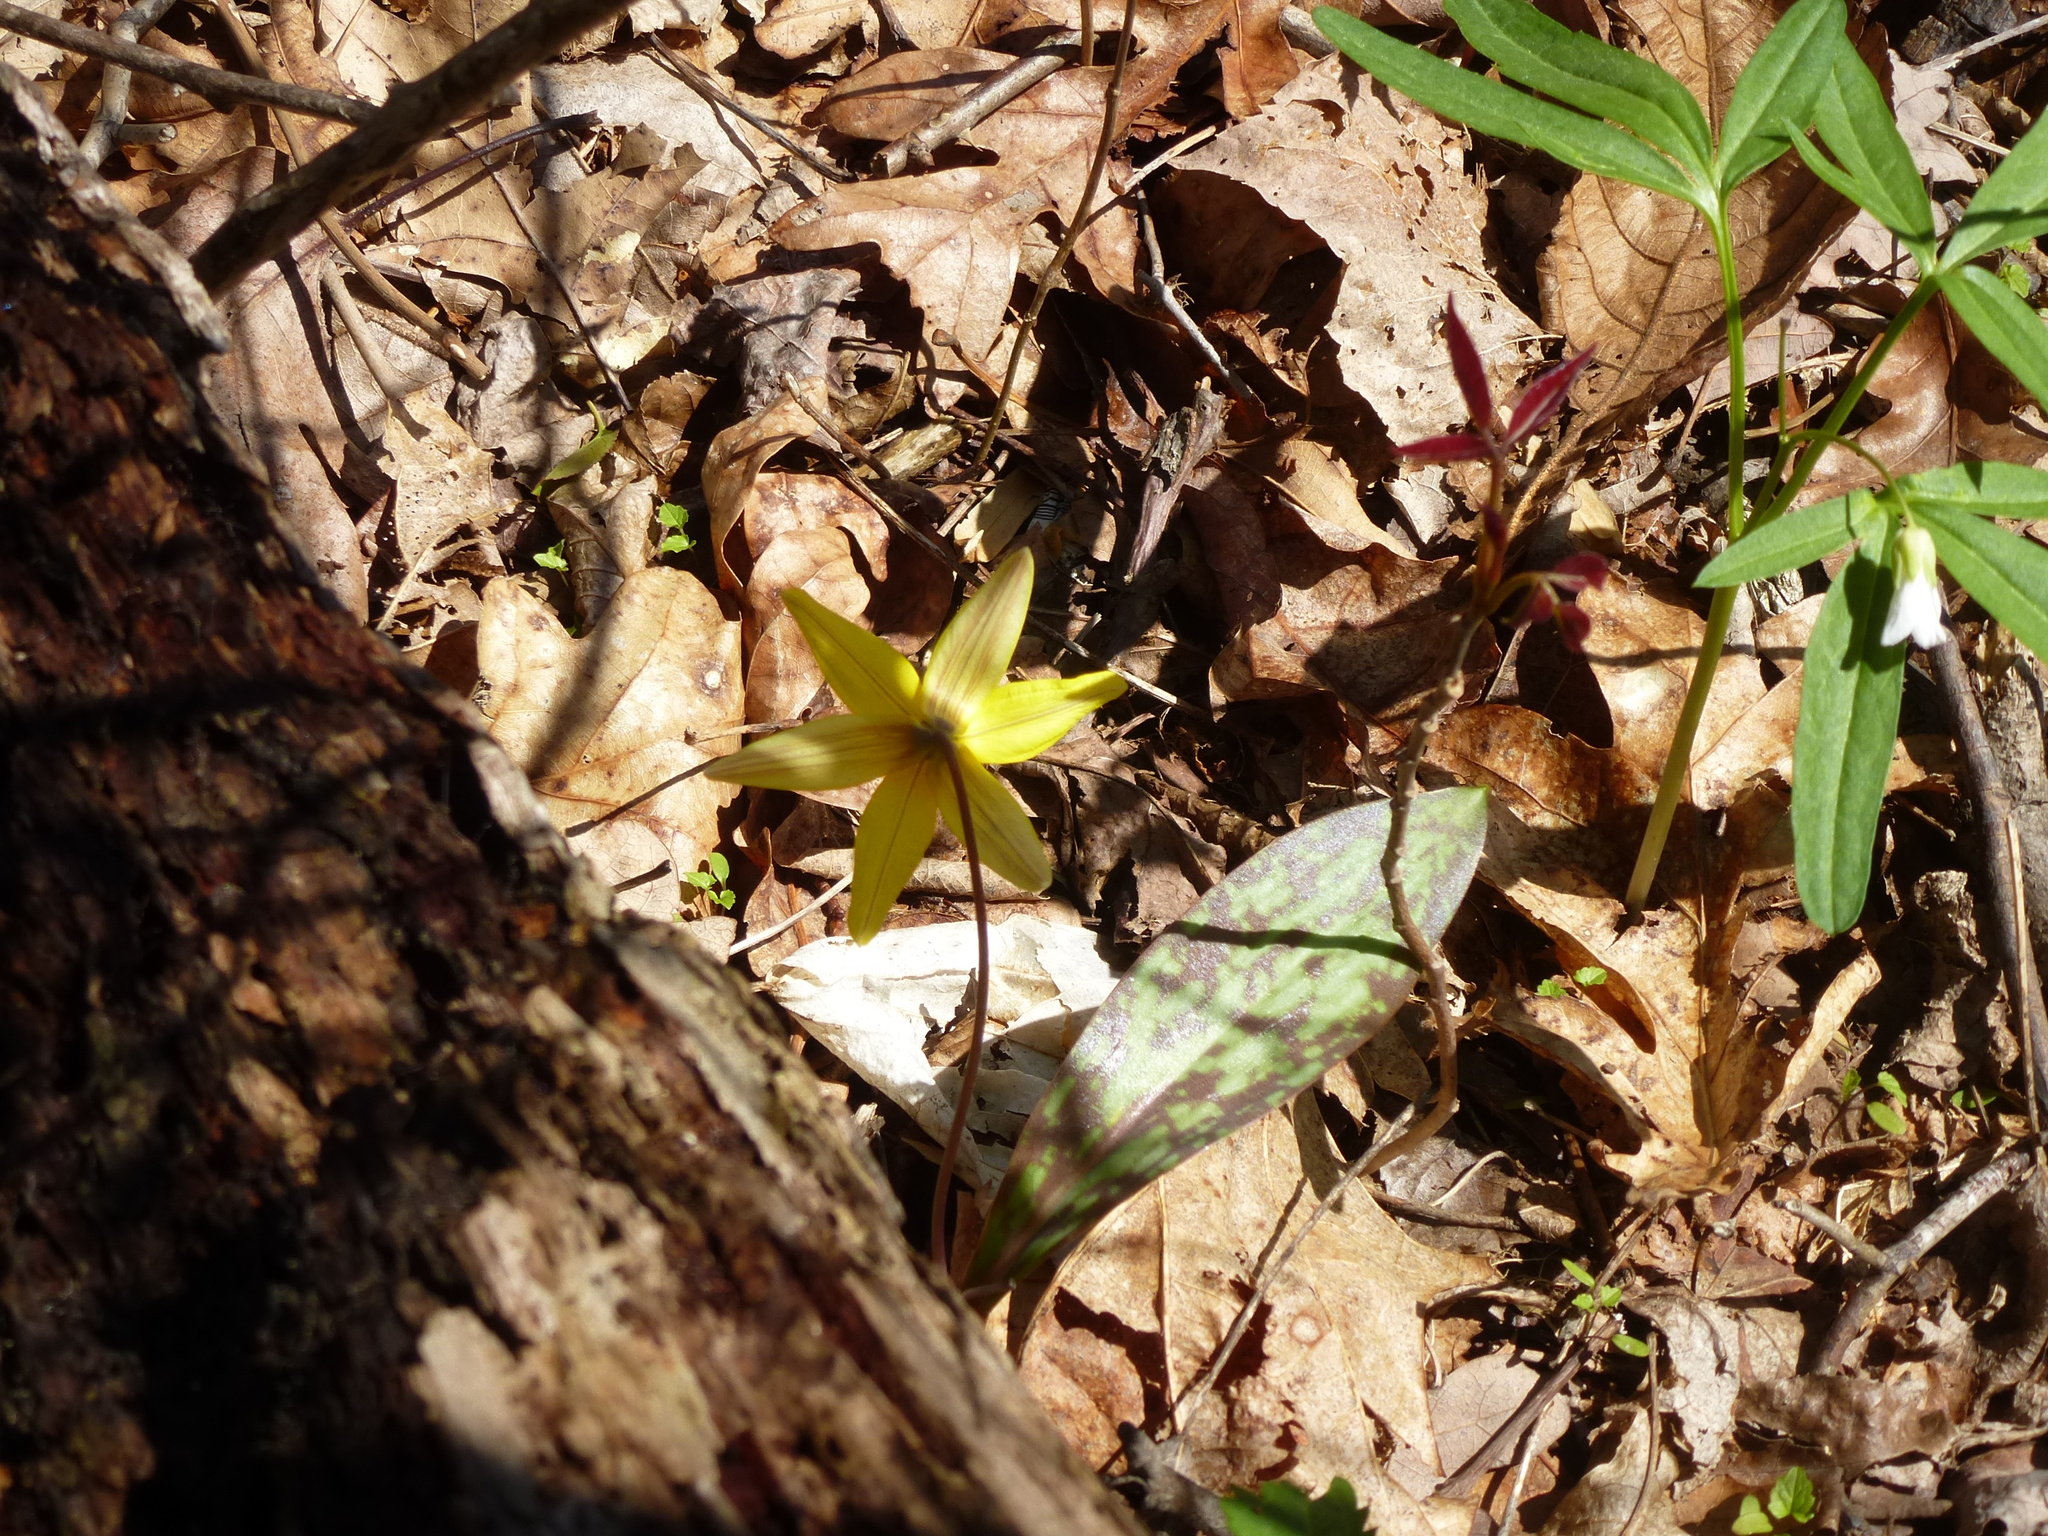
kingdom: Plantae
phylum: Tracheophyta
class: Liliopsida
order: Liliales
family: Liliaceae
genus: Erythronium
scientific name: Erythronium americanum
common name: Yellow adder's-tongue
